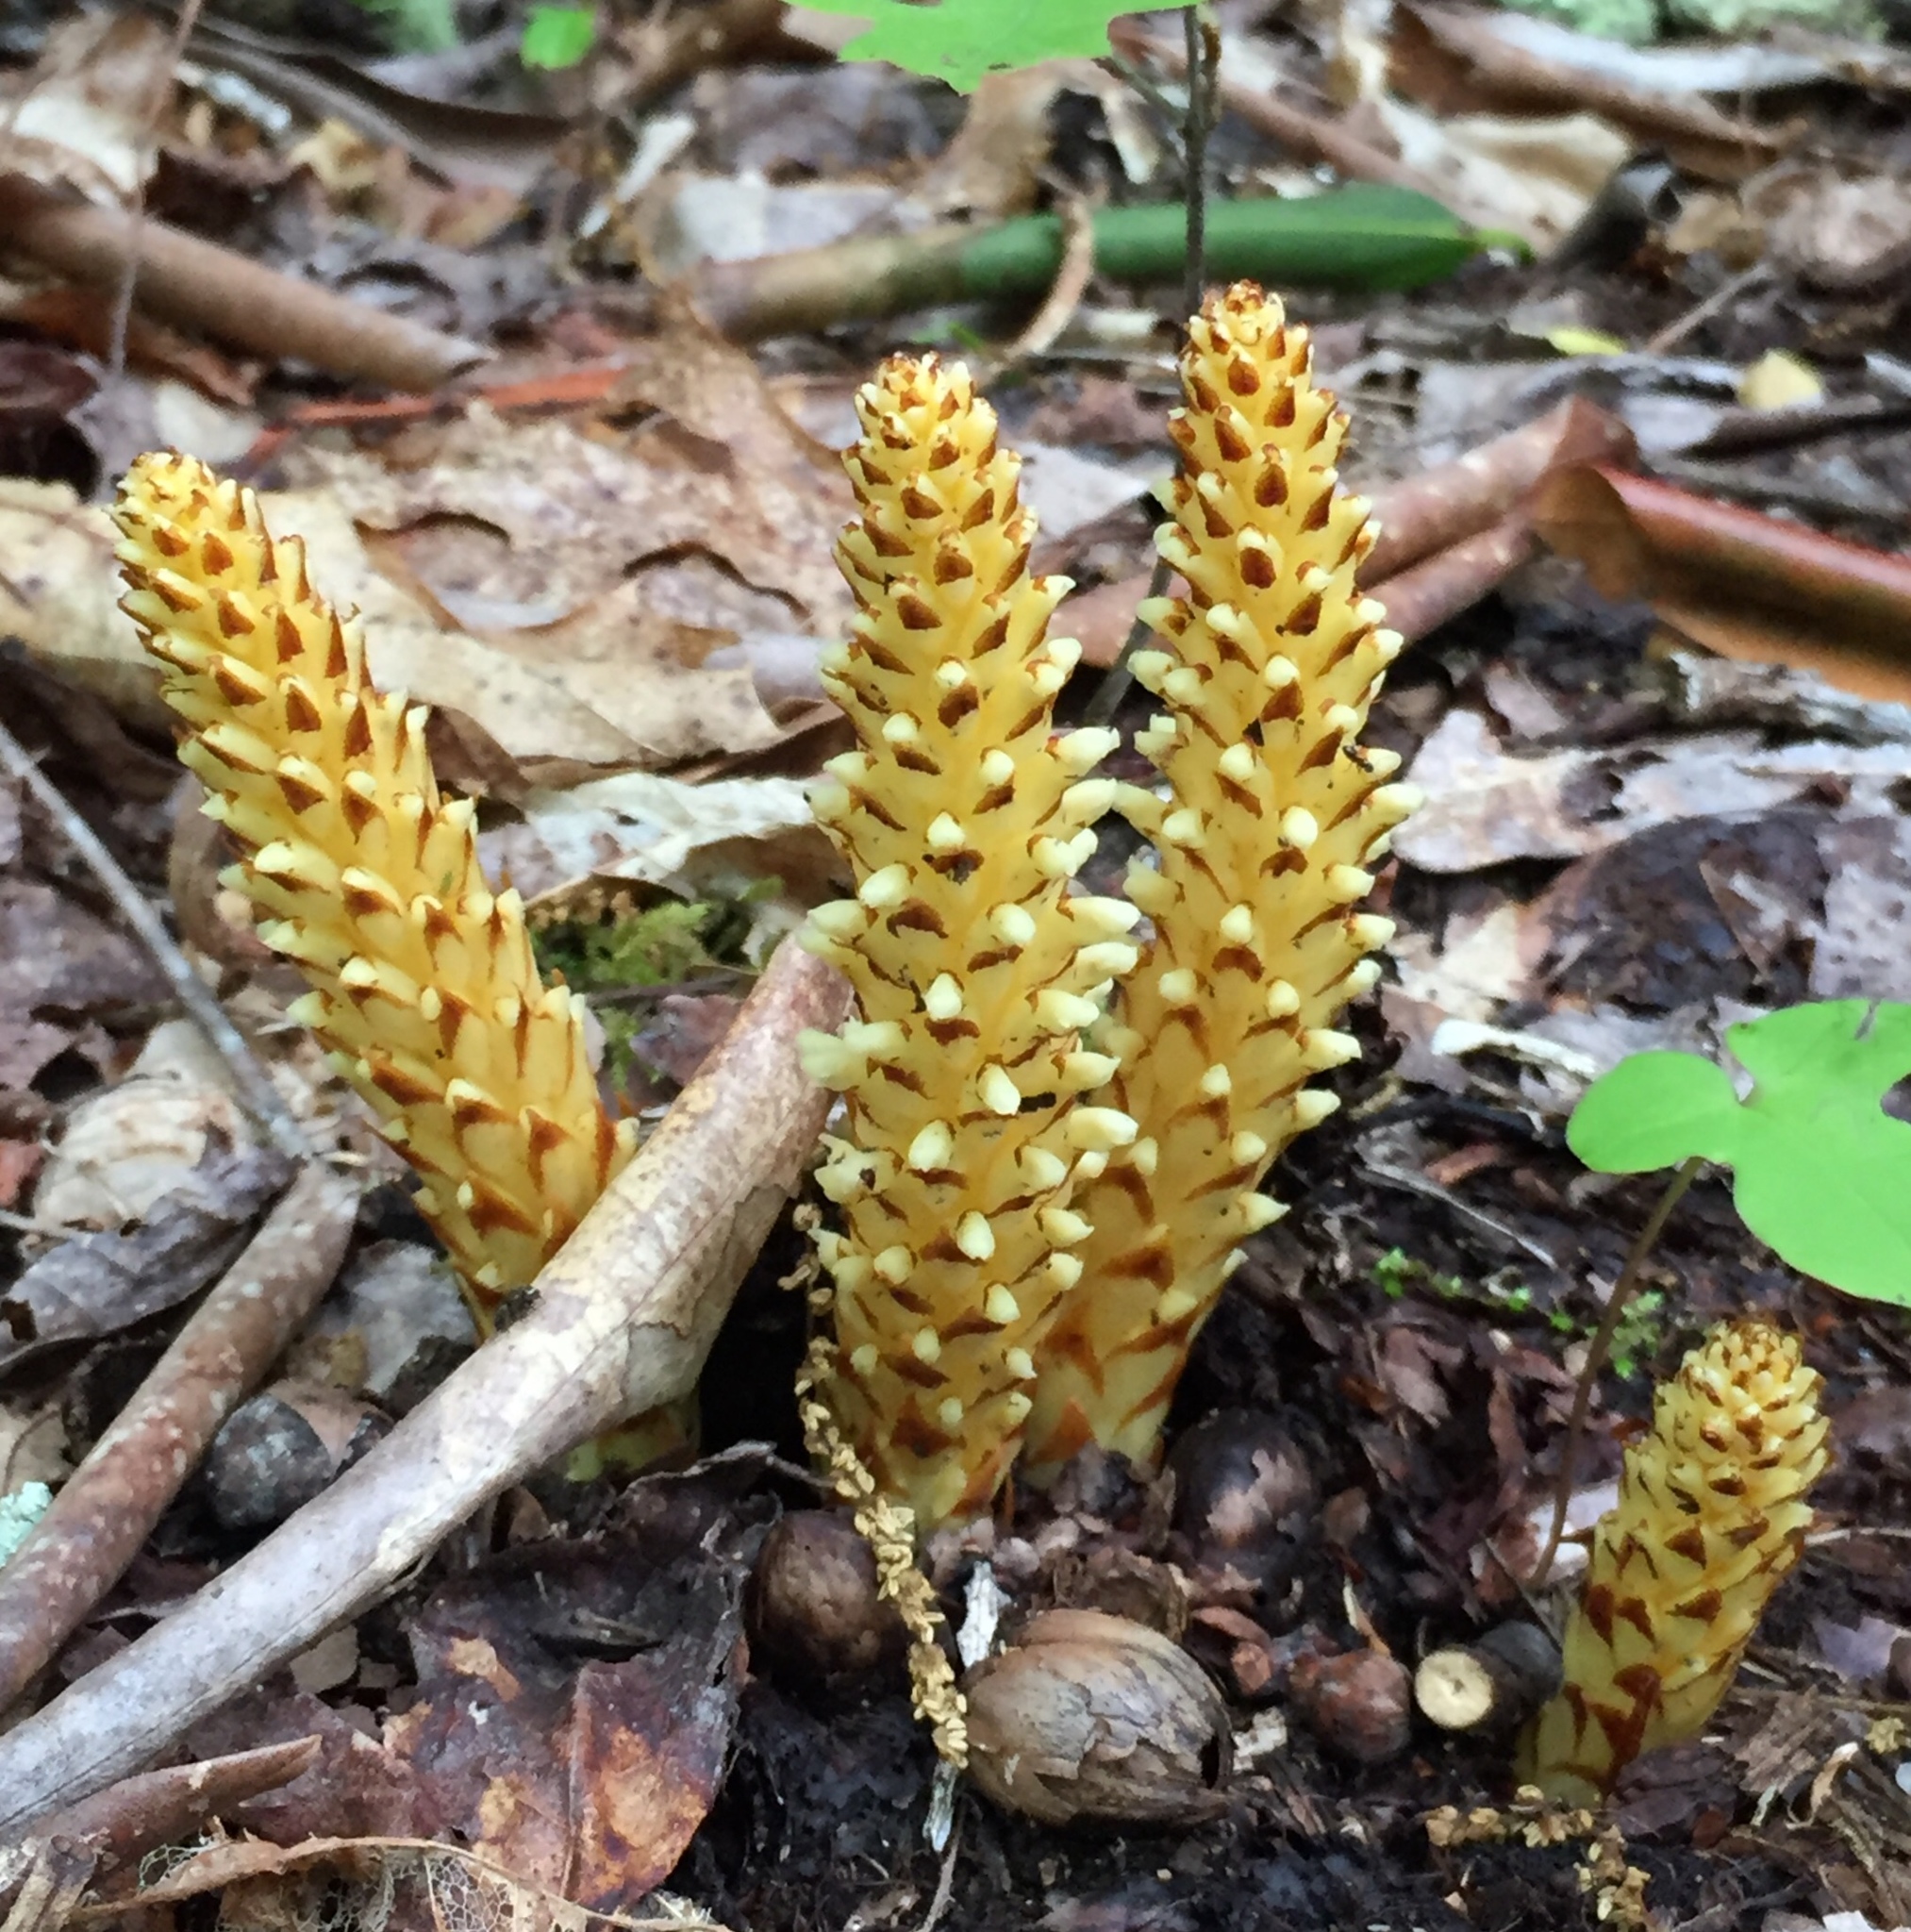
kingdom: Plantae
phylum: Tracheophyta
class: Magnoliopsida
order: Lamiales
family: Orobanchaceae
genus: Conopholis
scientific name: Conopholis americana
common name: American cancer-root
